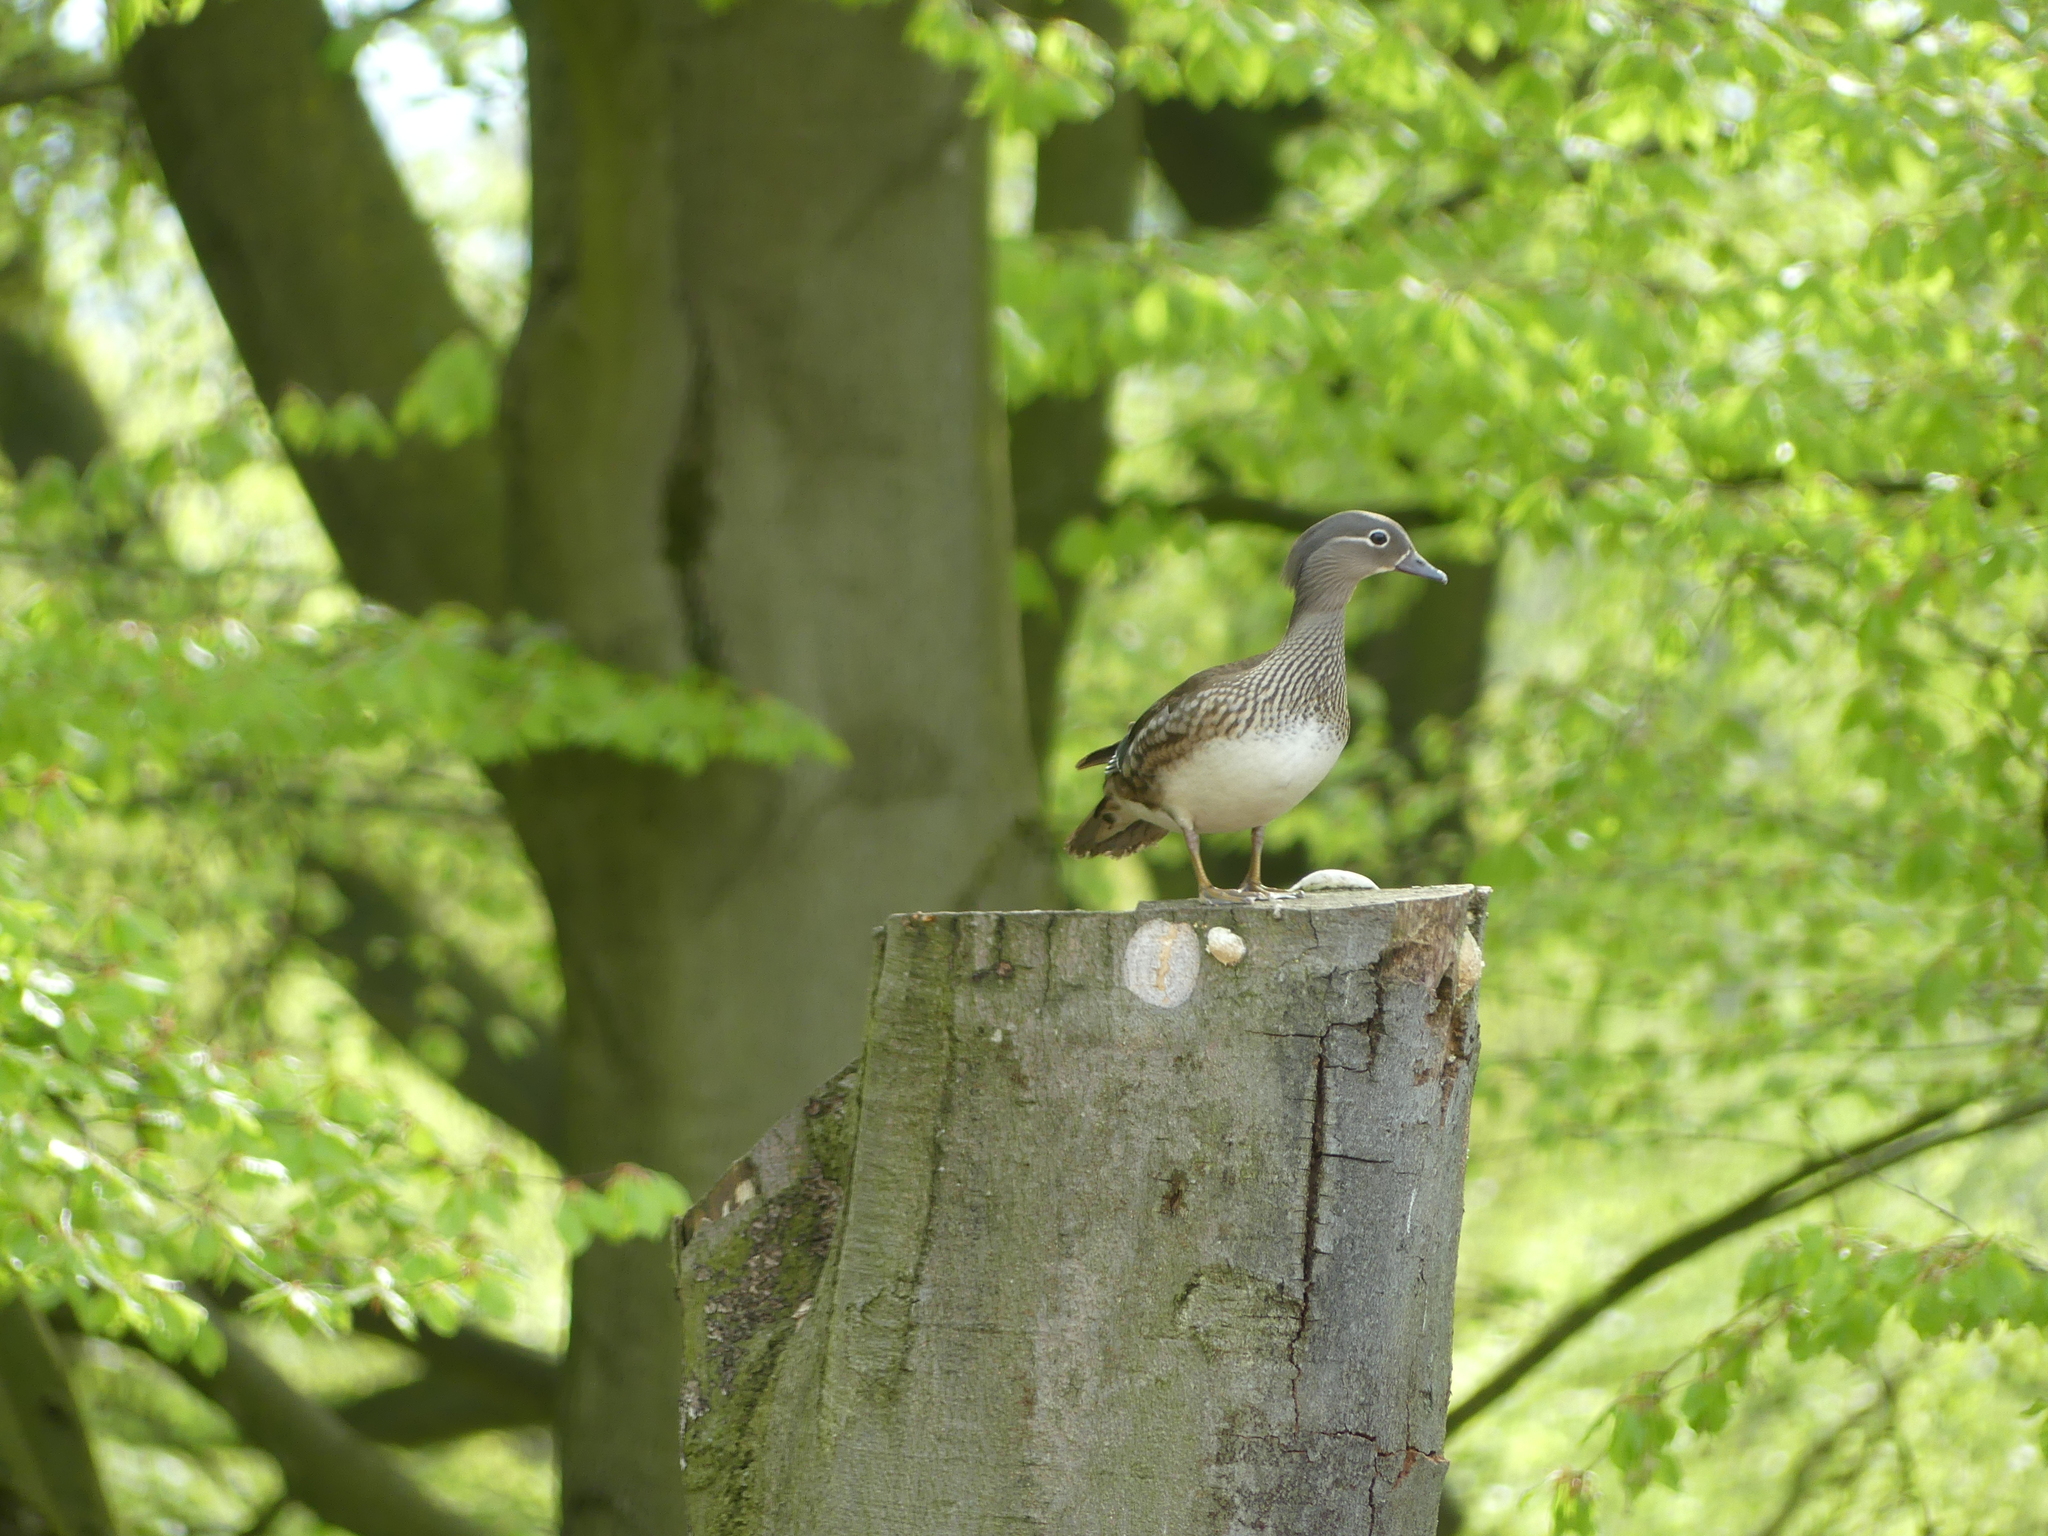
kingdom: Animalia
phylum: Chordata
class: Aves
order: Anseriformes
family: Anatidae
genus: Aix
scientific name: Aix galericulata
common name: Mandarin duck
